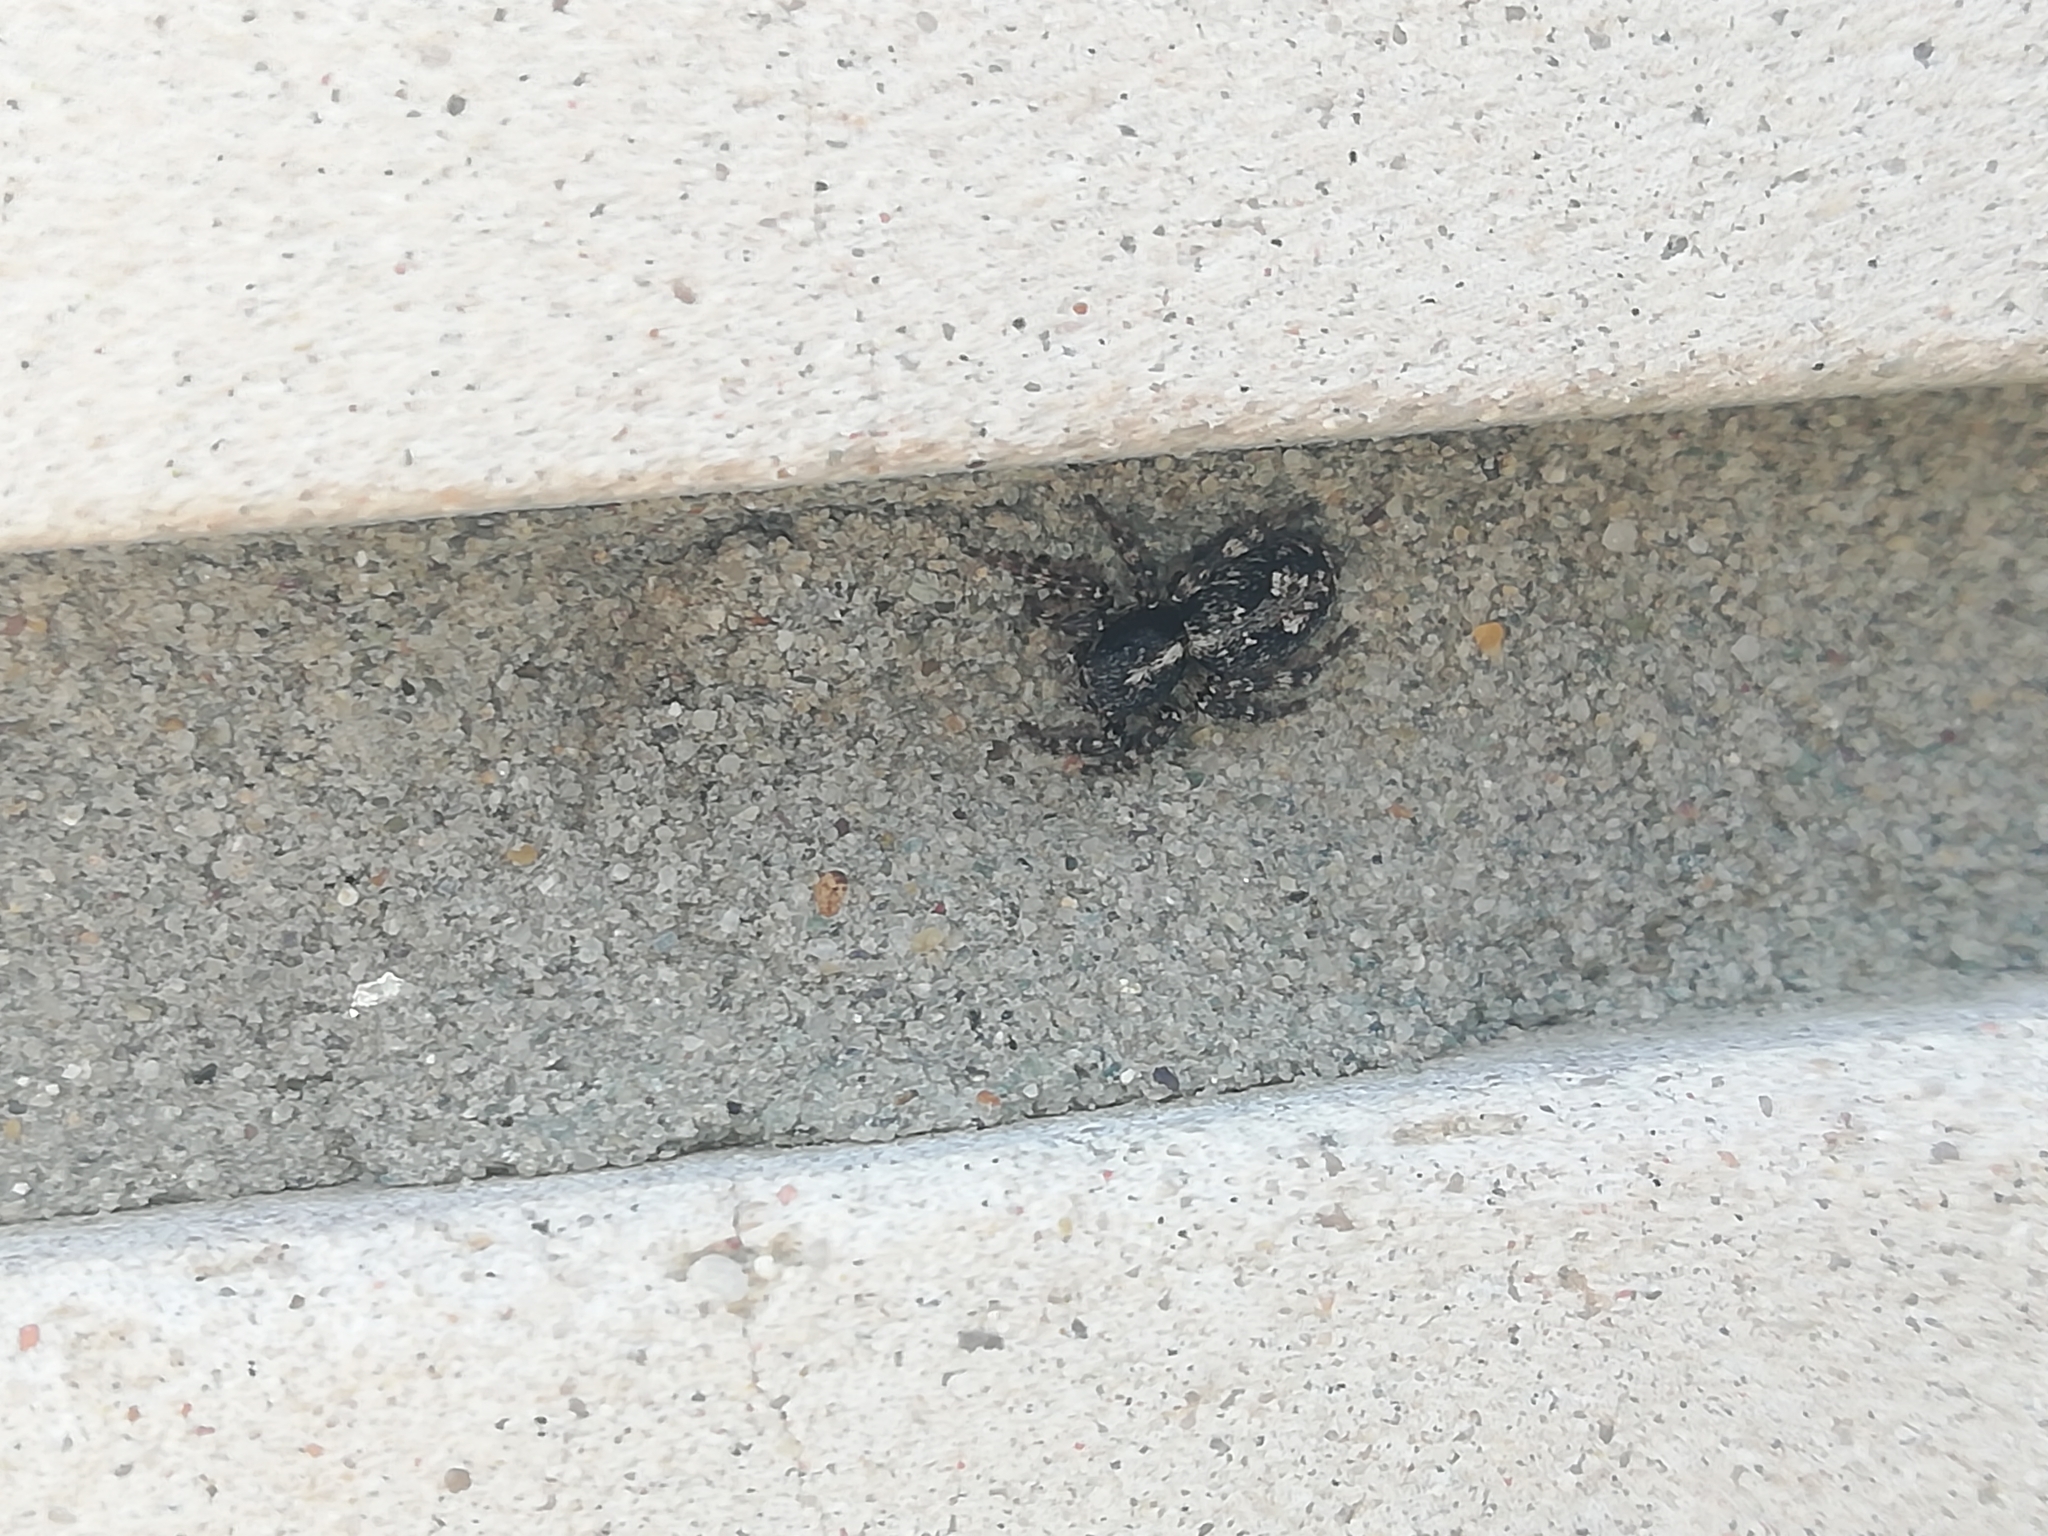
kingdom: Animalia
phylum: Arthropoda
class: Arachnida
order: Araneae
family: Salticidae
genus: Attulus
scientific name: Attulus terebratus
